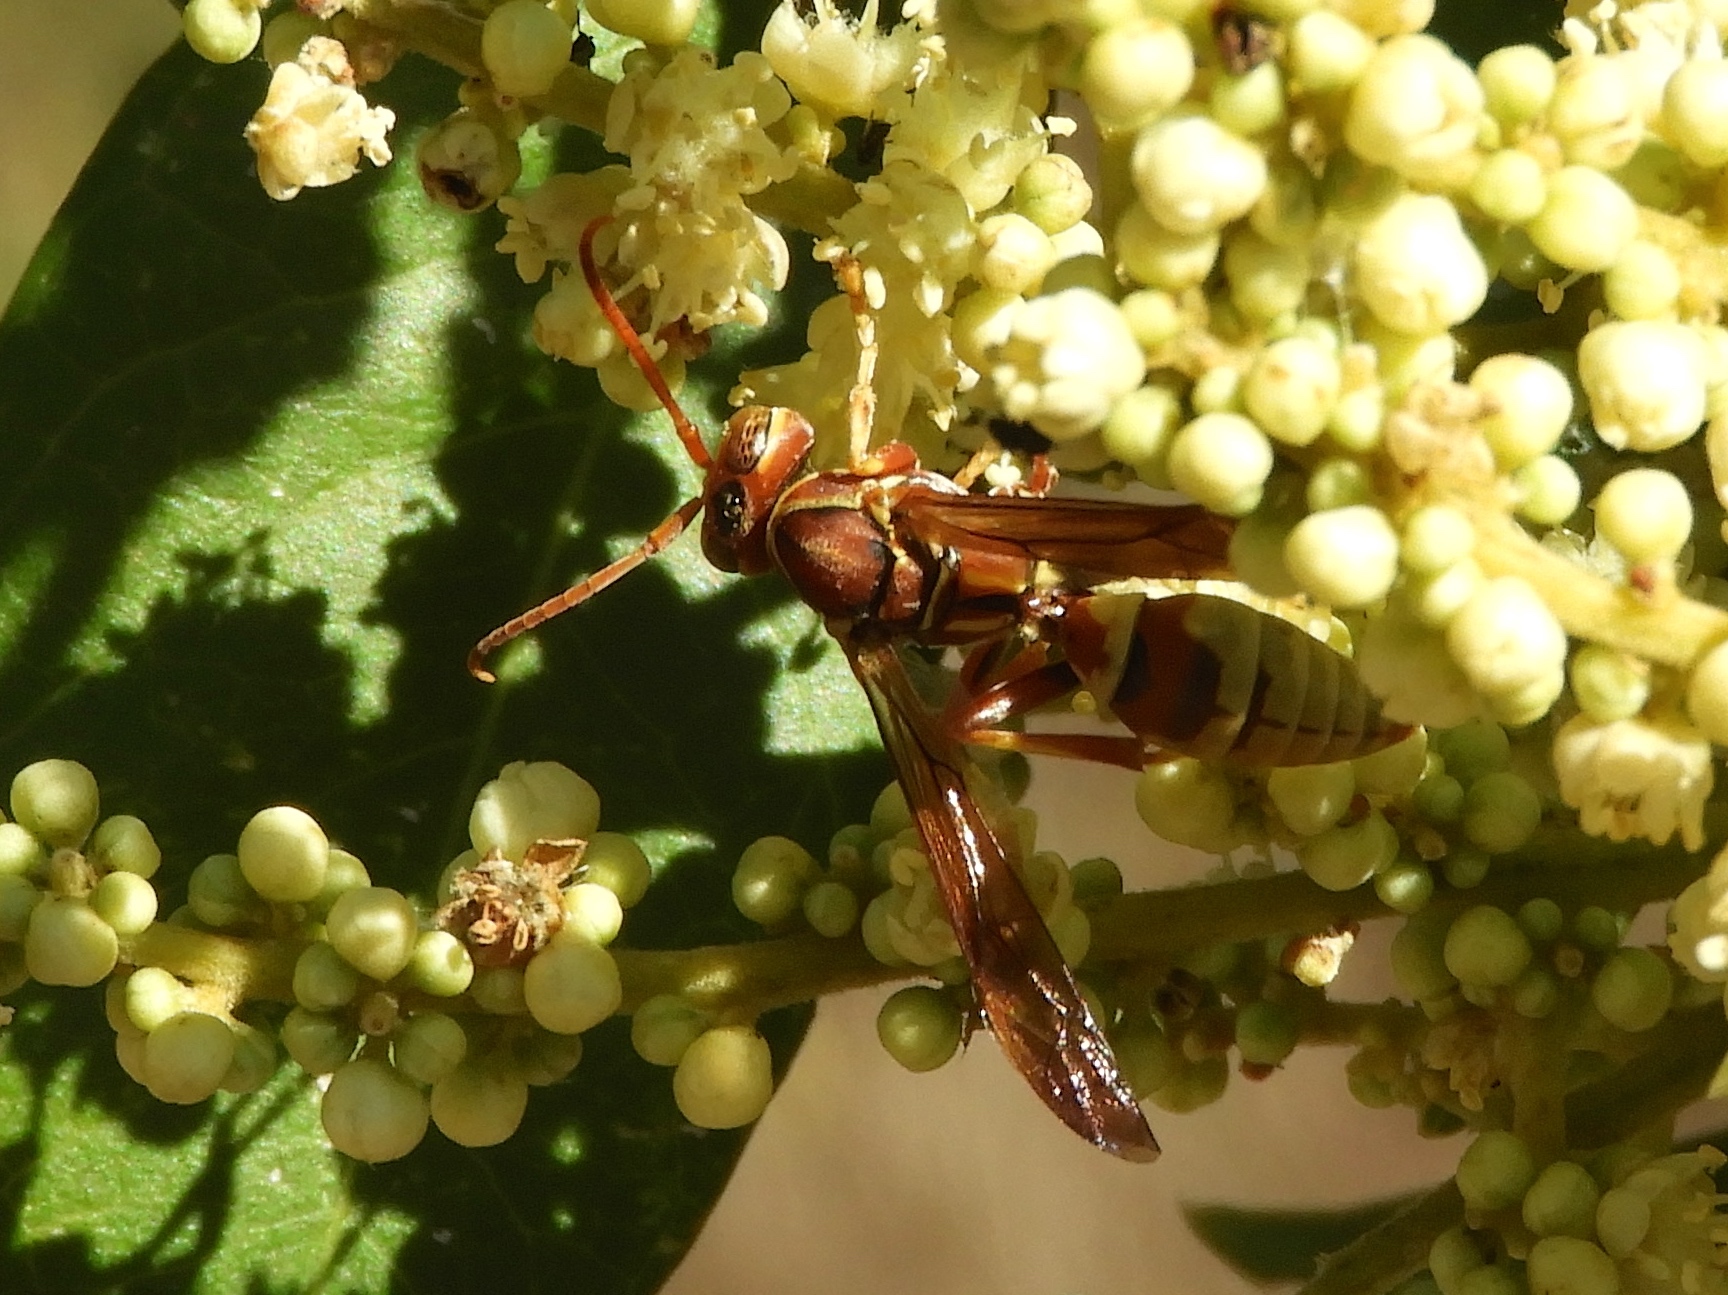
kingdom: Animalia
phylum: Arthropoda
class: Insecta
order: Hymenoptera
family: Eumenidae
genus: Polistes
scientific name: Polistes dorsalis
